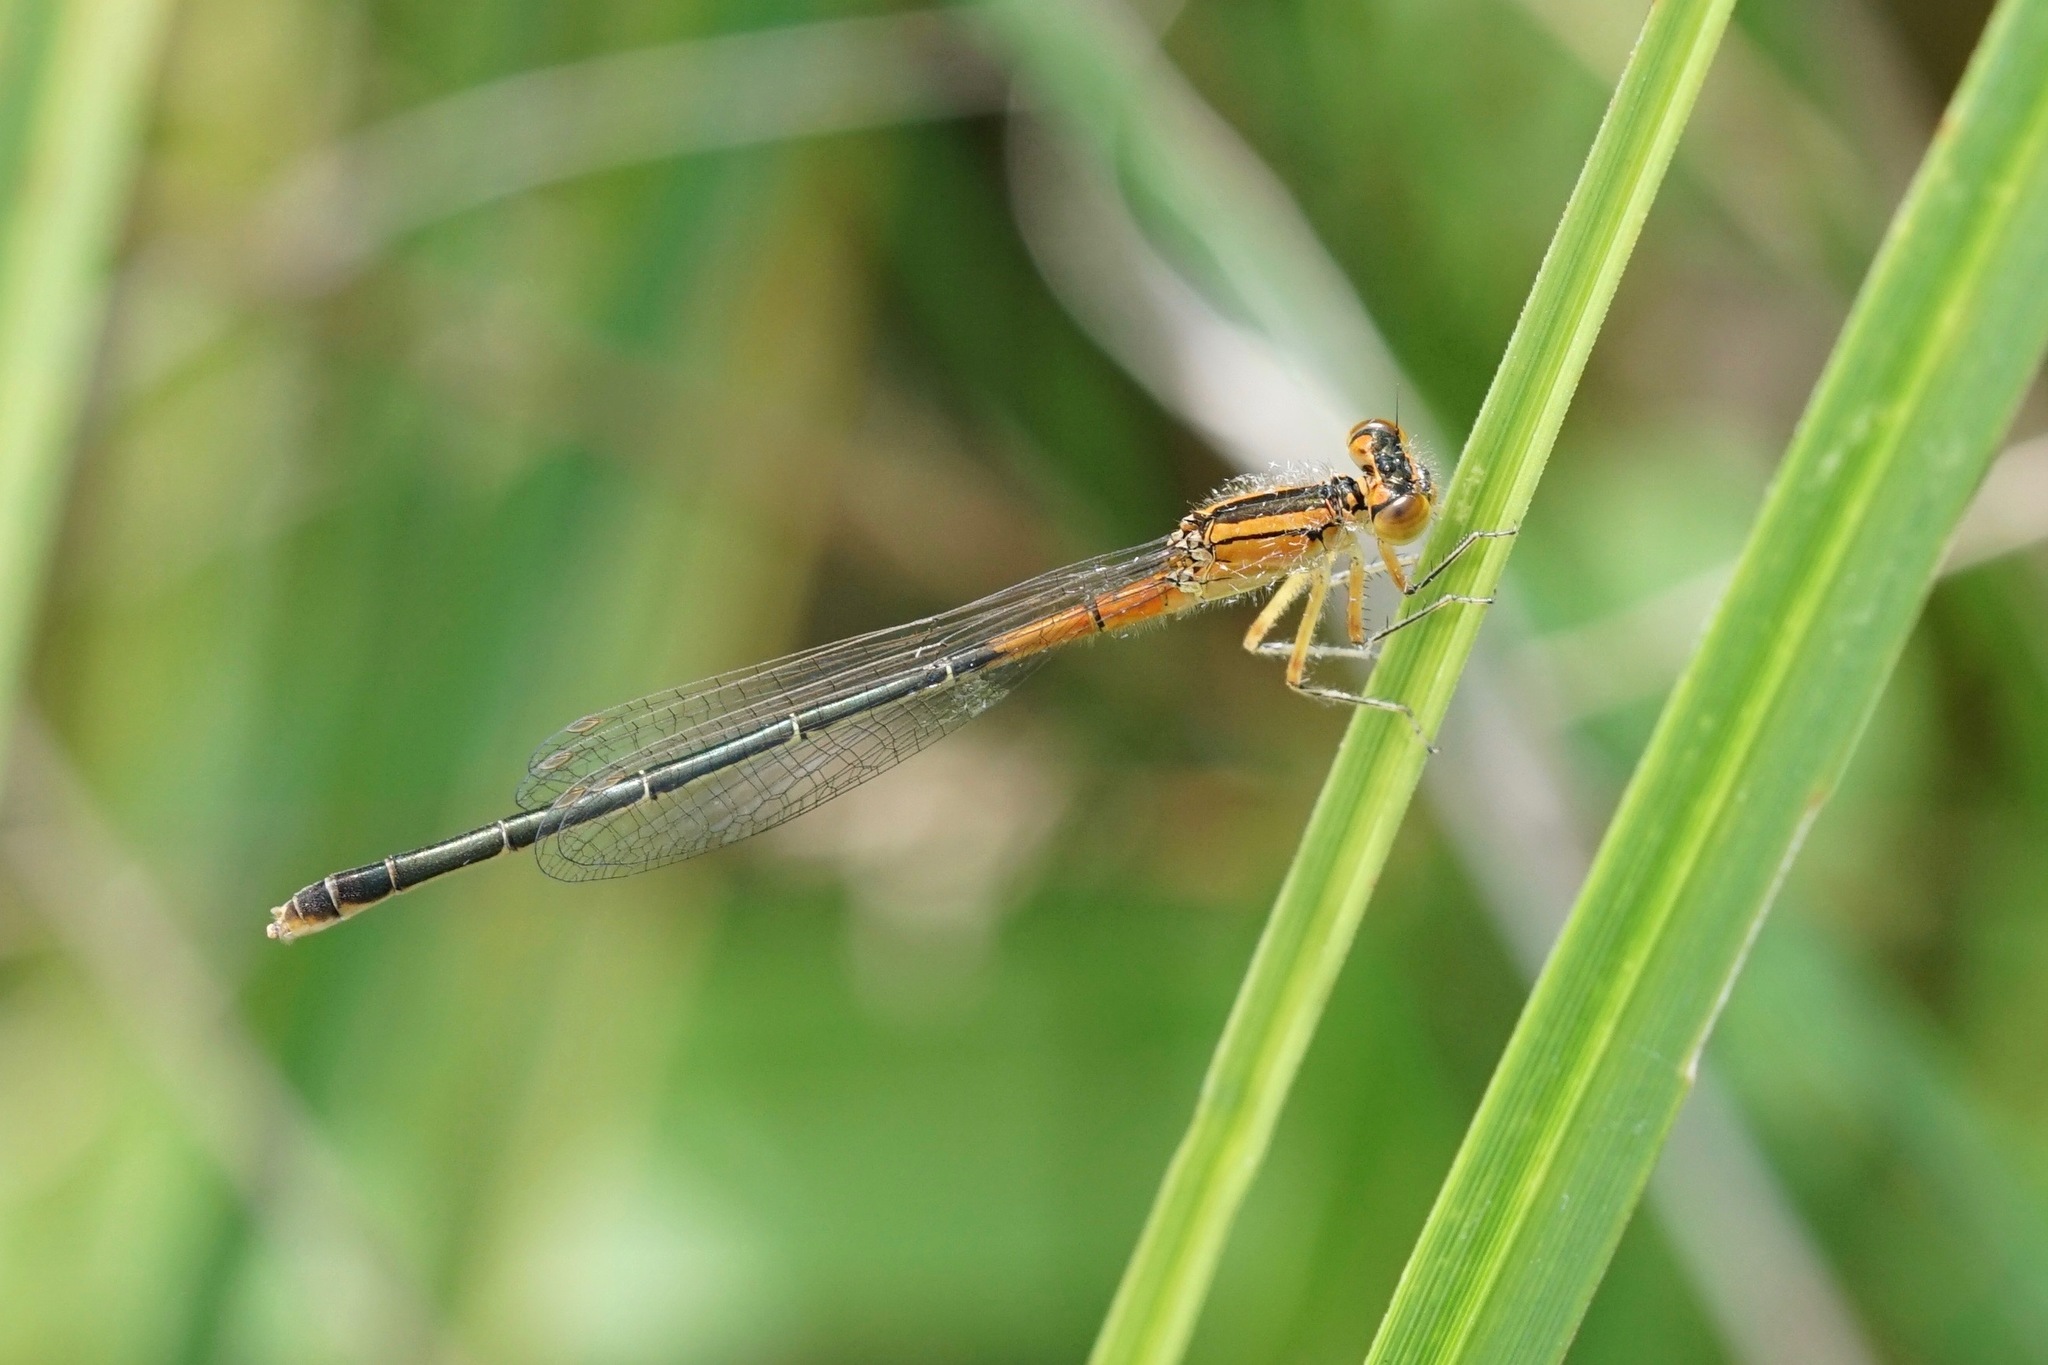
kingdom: Animalia
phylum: Arthropoda
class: Insecta
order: Odonata
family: Coenagrionidae
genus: Ischnura
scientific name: Ischnura verticalis
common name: Eastern forktail
